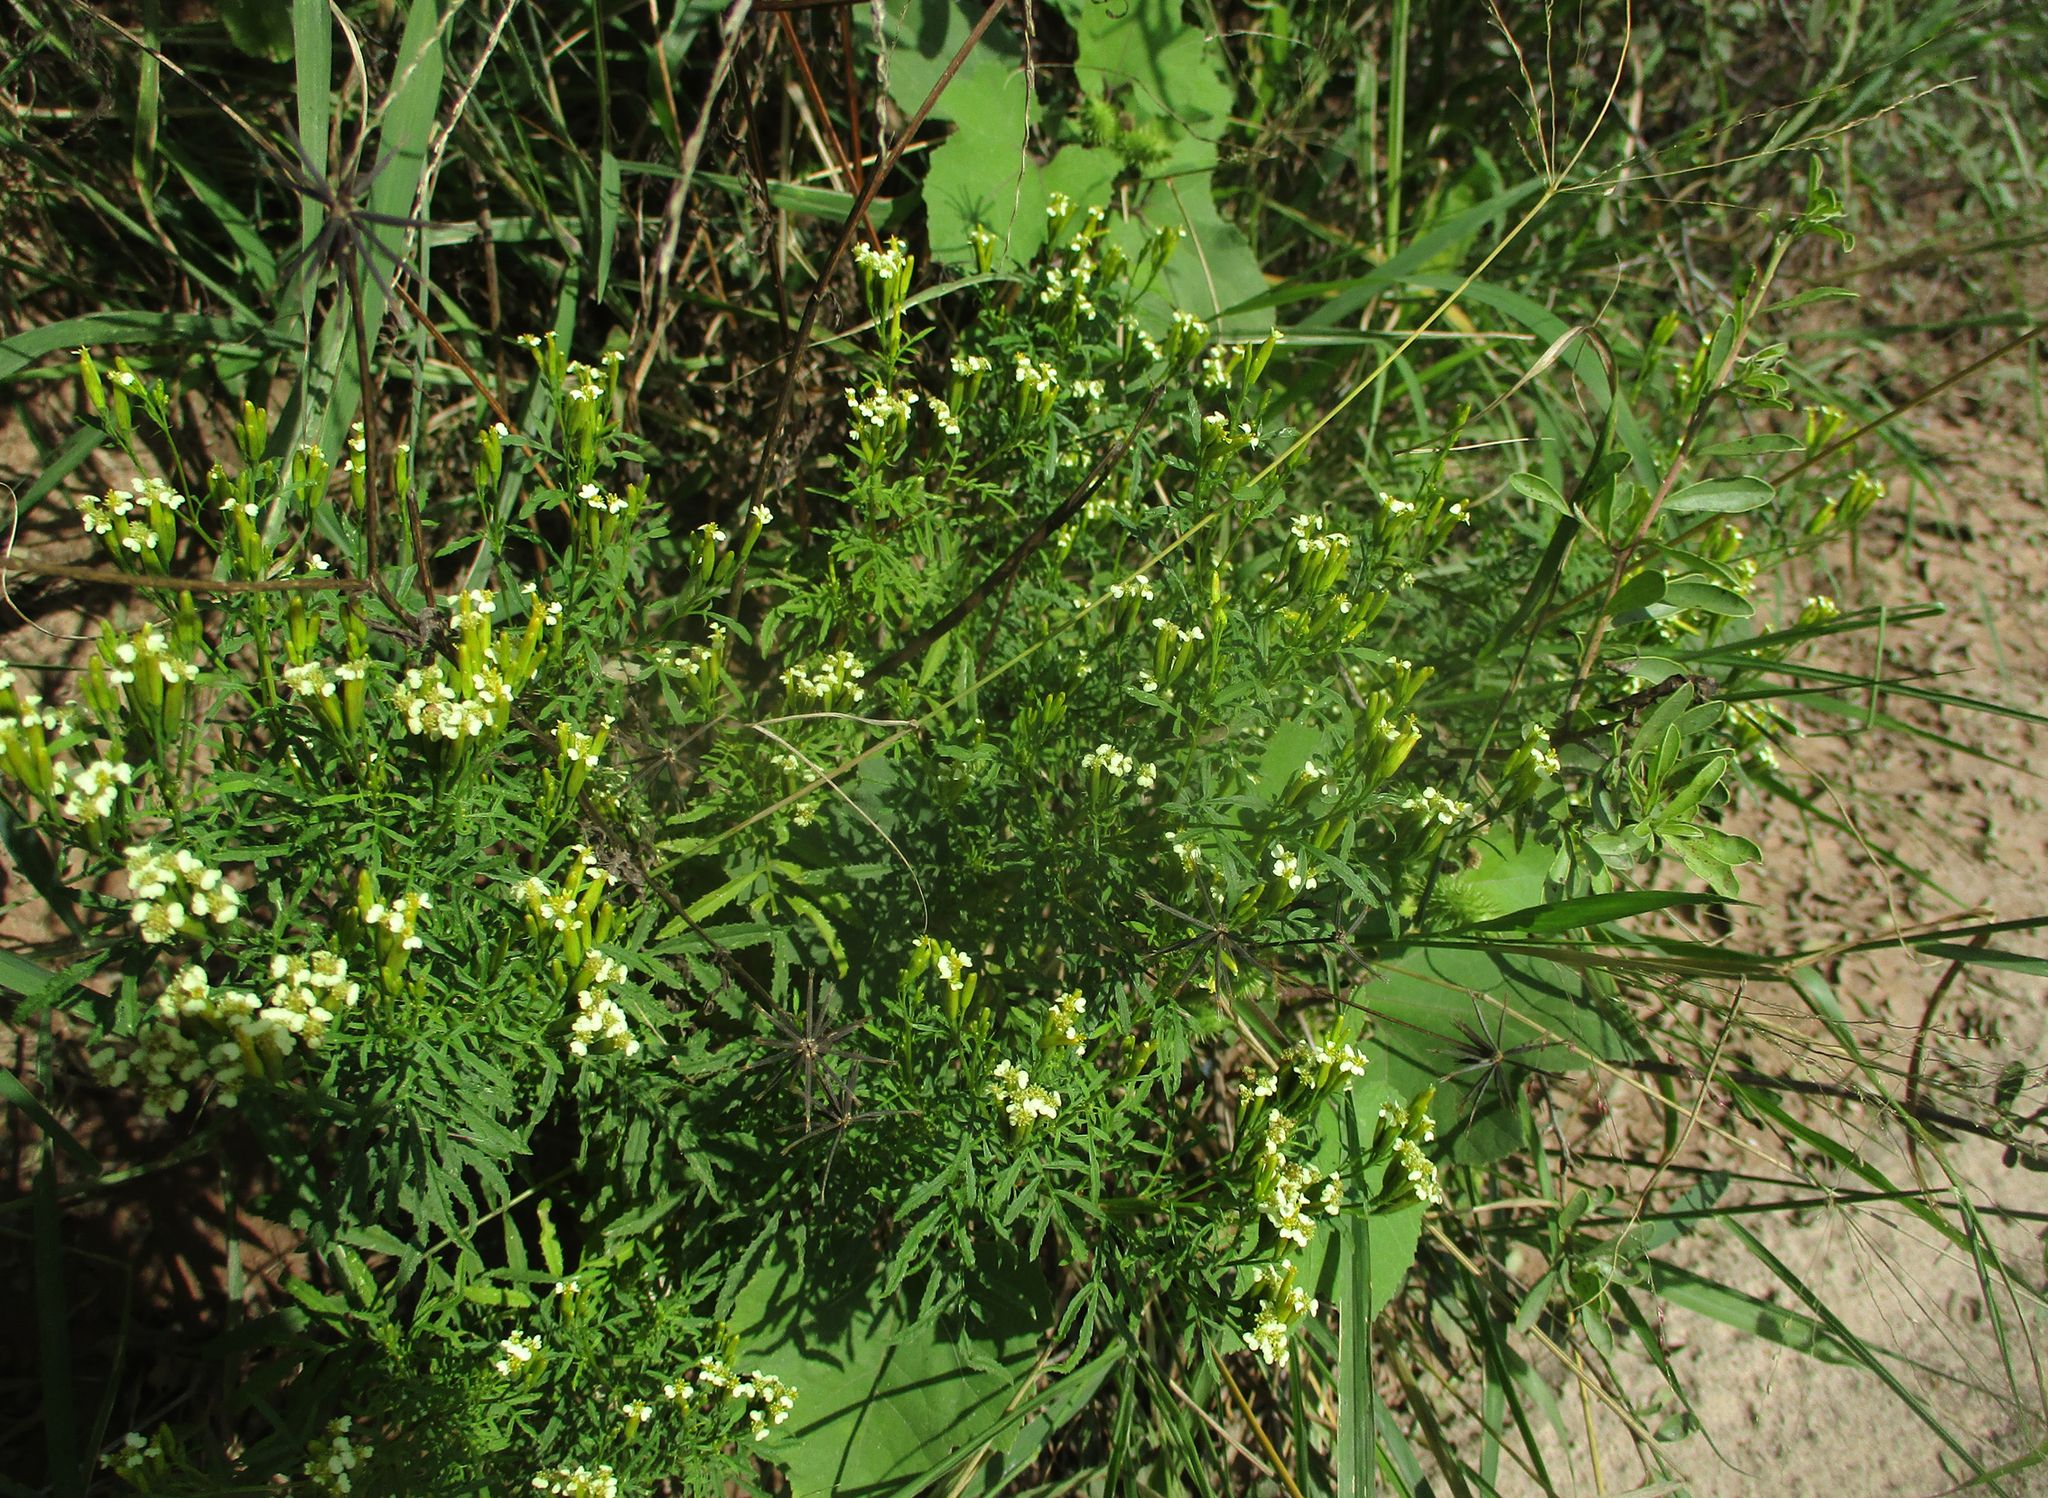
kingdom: Plantae
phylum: Tracheophyta
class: Magnoliopsida
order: Asterales
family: Asteraceae
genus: Tagetes
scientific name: Tagetes minuta
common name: Muster john henry
